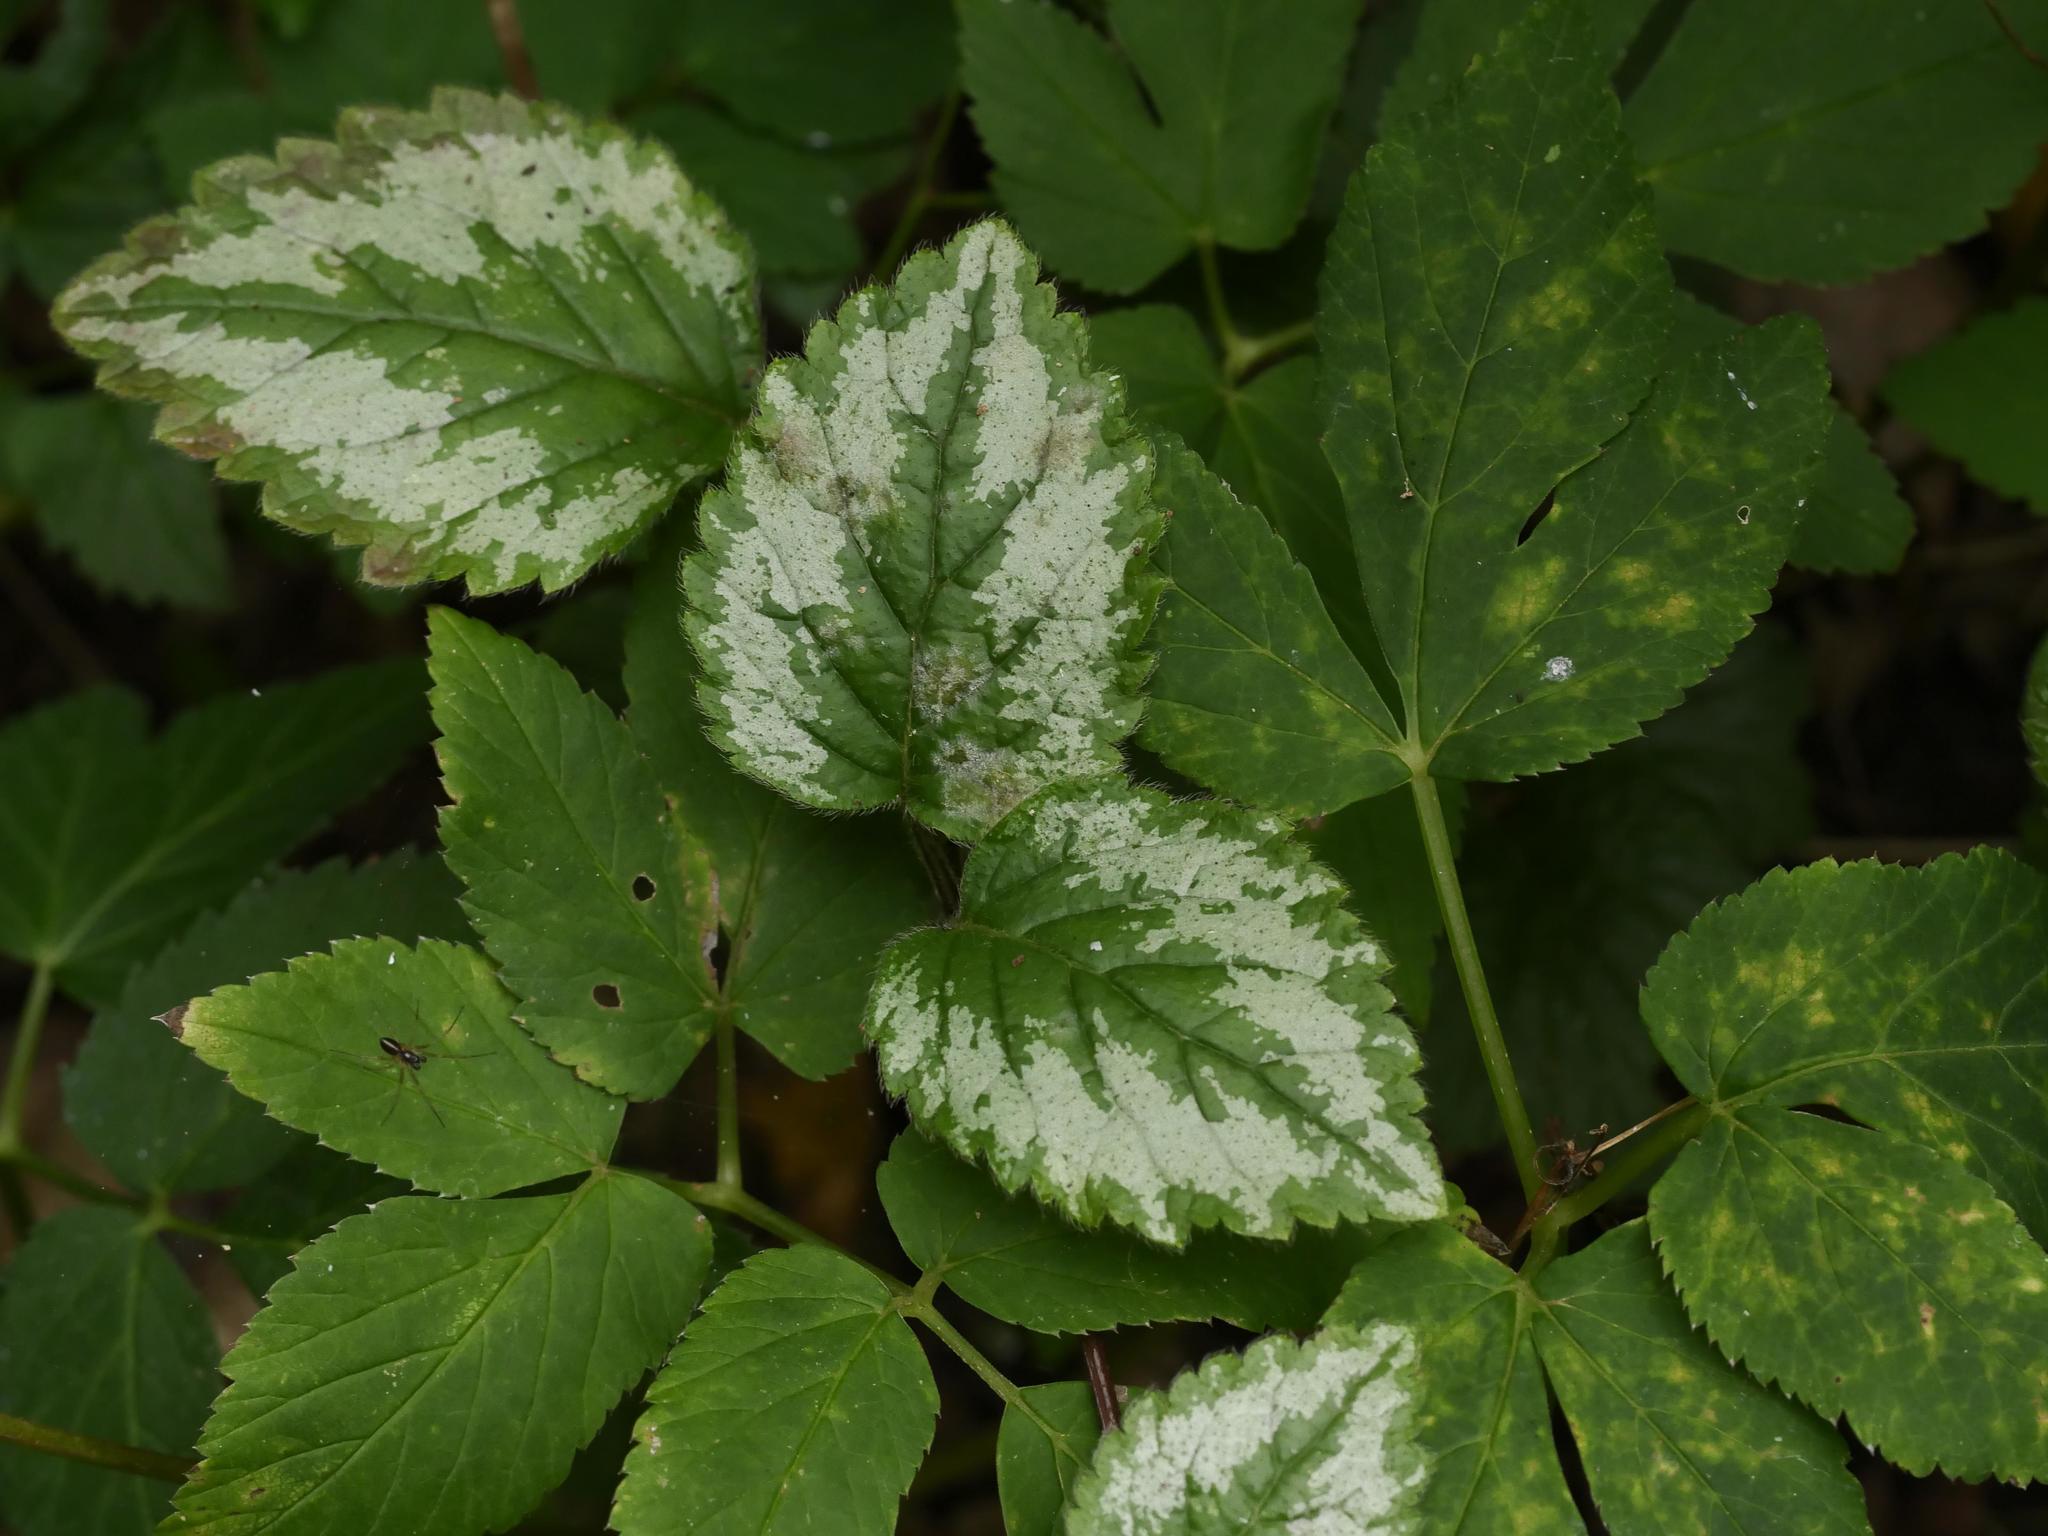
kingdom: Plantae
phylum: Tracheophyta
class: Magnoliopsida
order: Lamiales
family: Lamiaceae
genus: Lamium
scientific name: Lamium galeobdolon
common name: Yellow archangel
